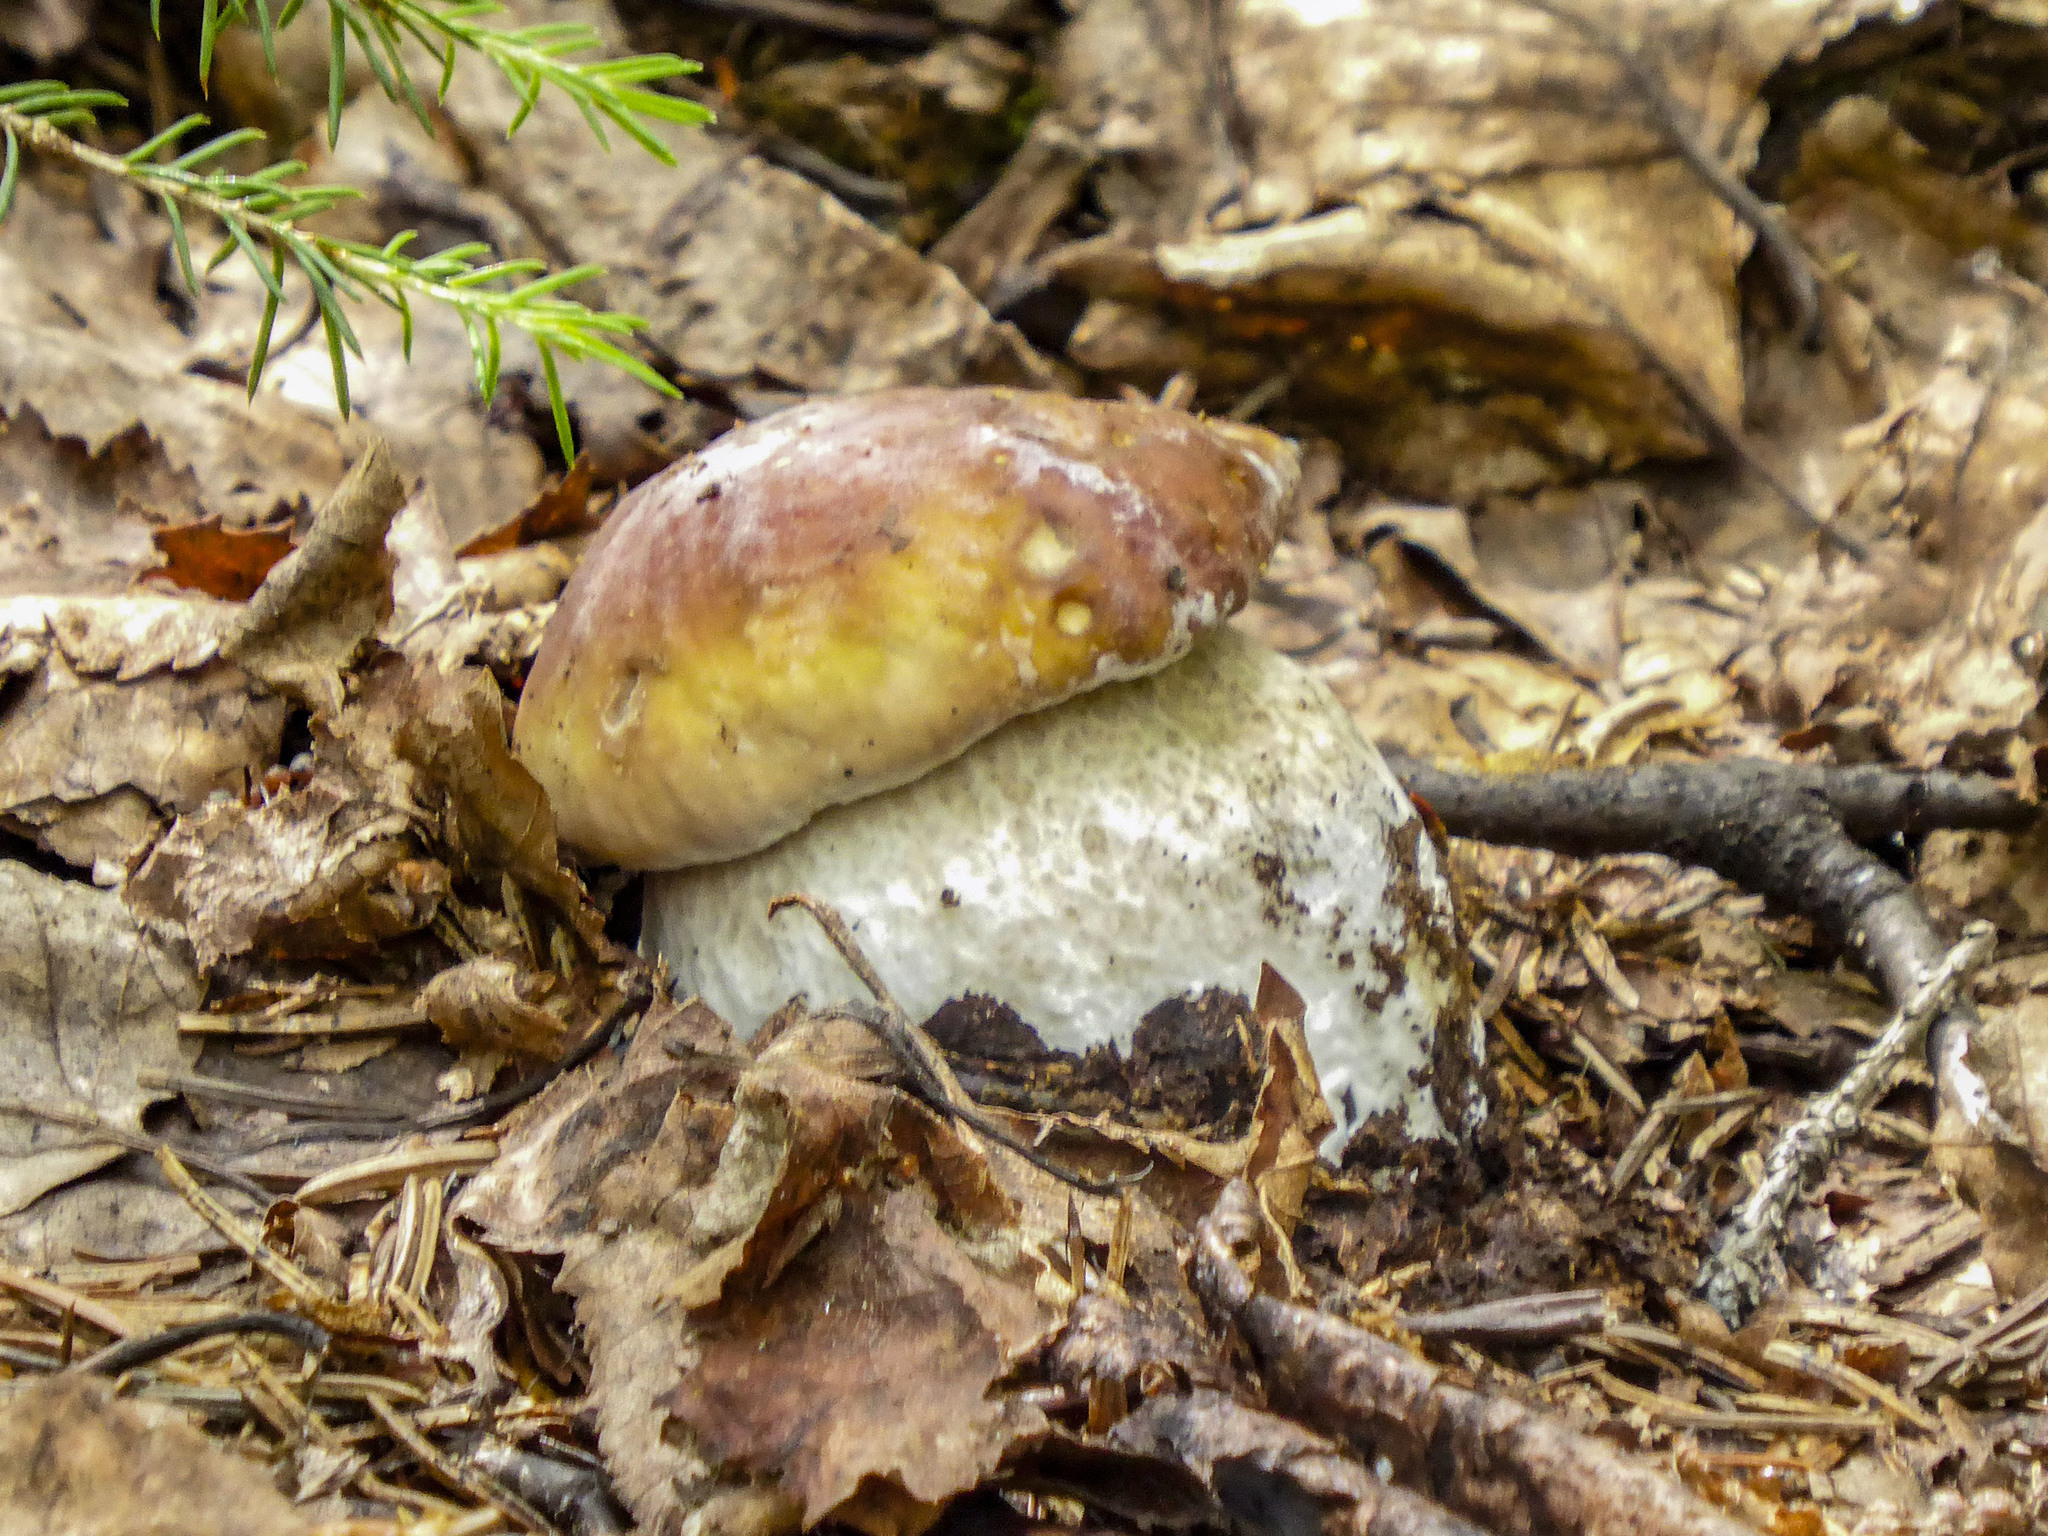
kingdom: Fungi
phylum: Basidiomycota
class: Agaricomycetes
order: Boletales
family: Boletaceae
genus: Boletus
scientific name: Boletus edulis
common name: Cep
